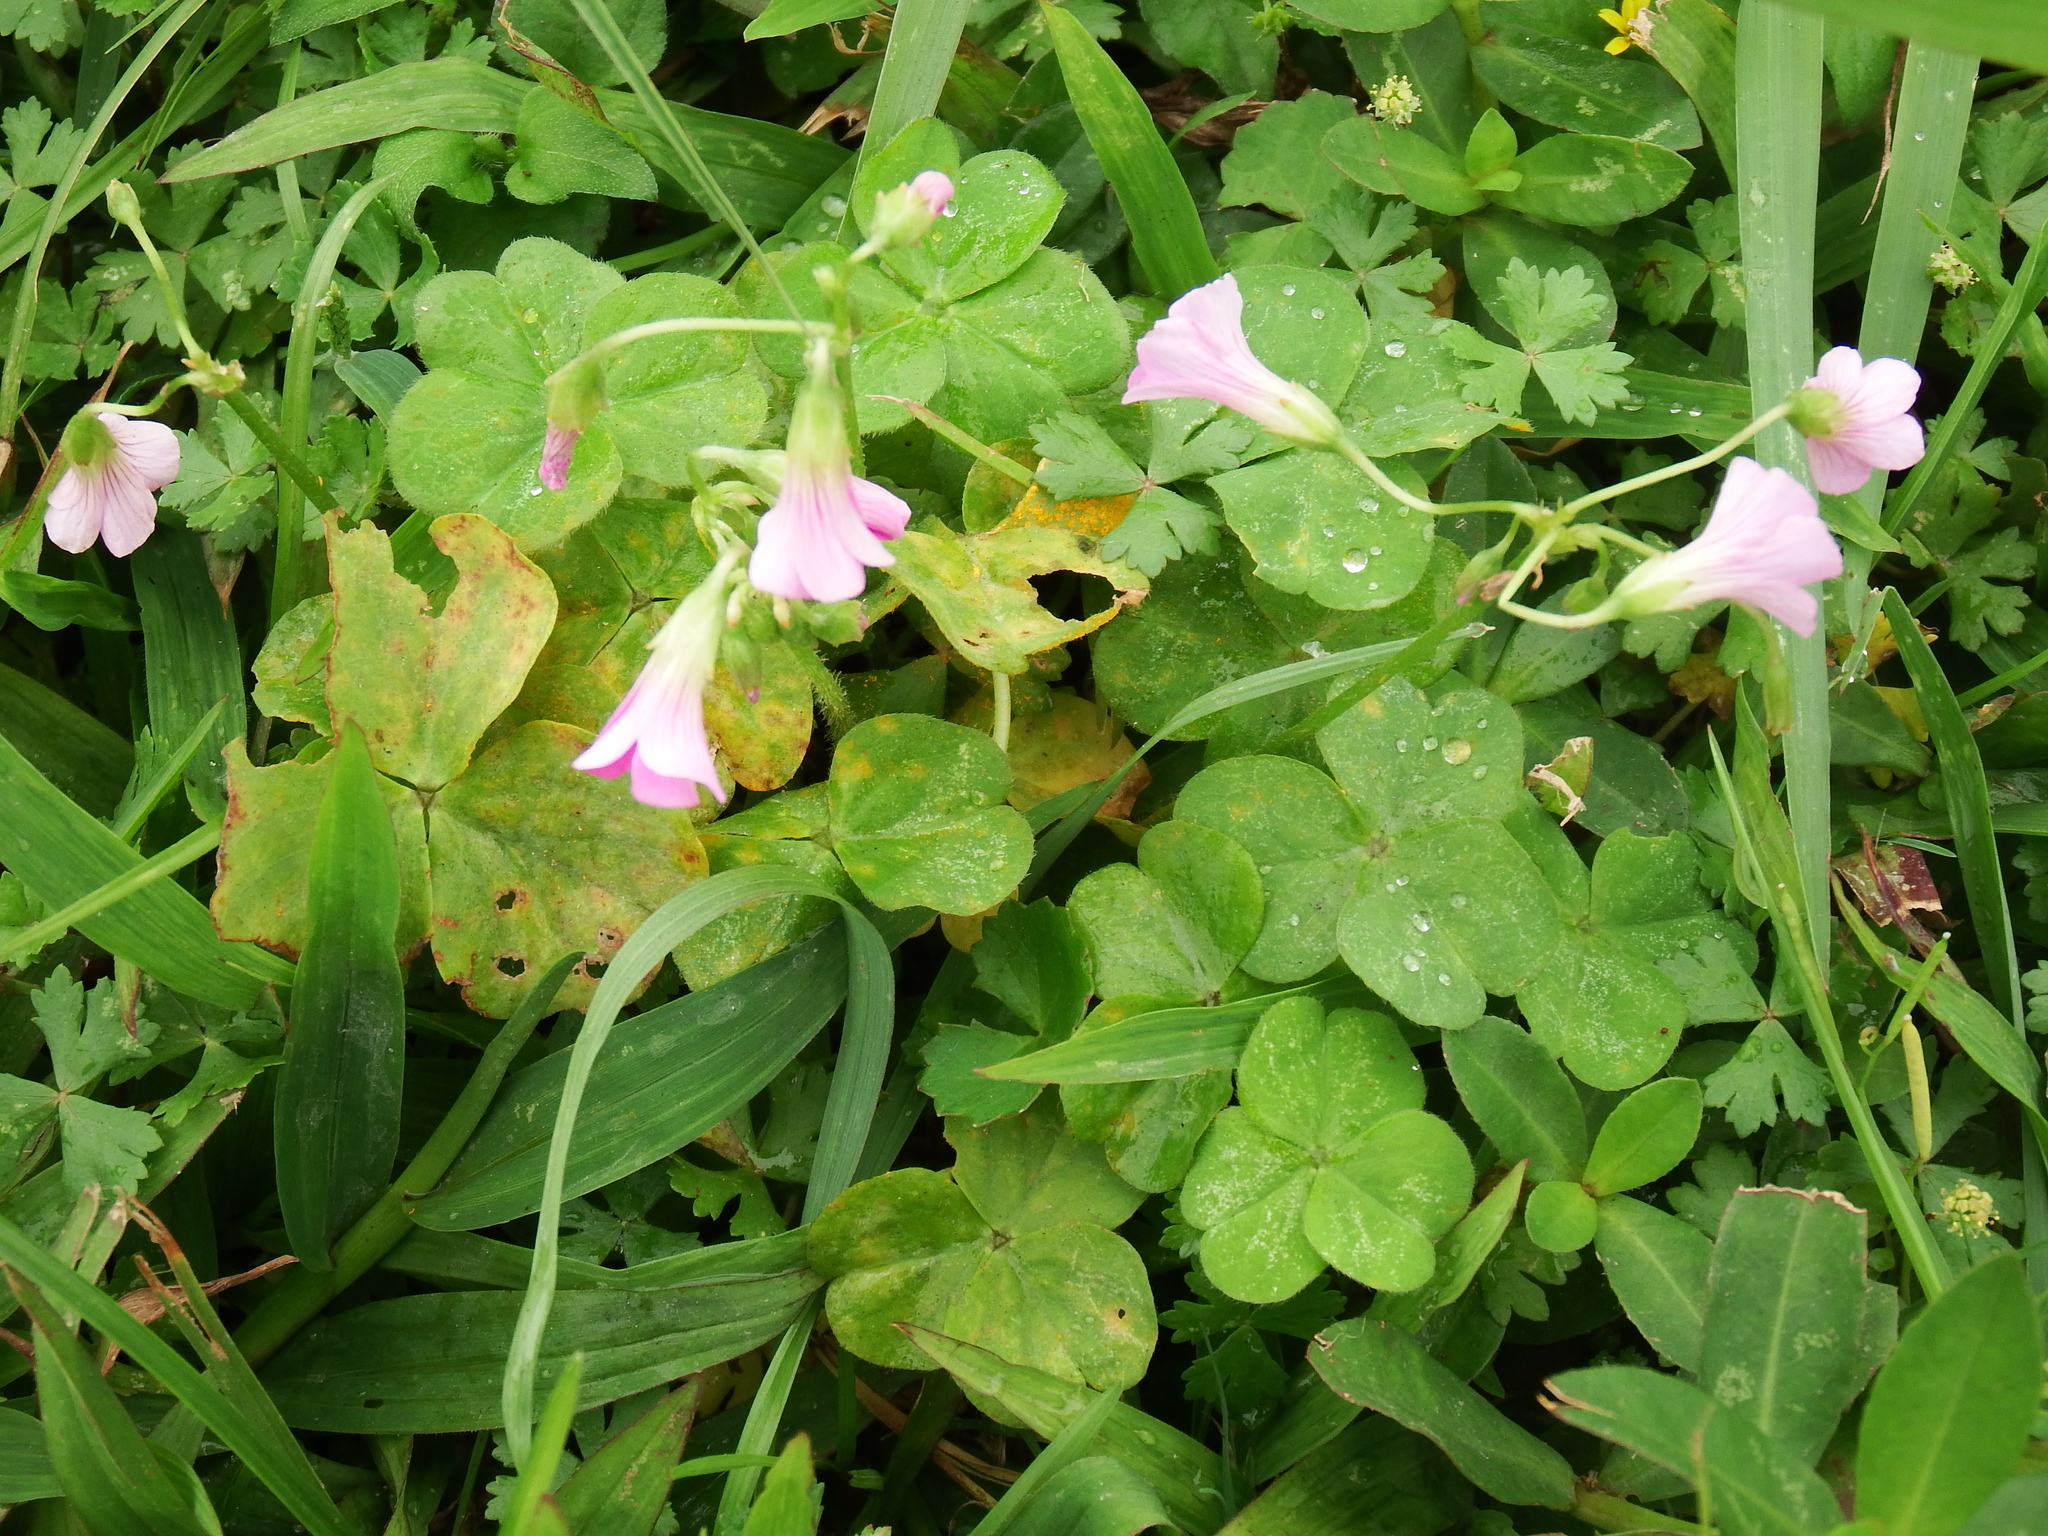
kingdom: Plantae
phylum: Tracheophyta
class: Magnoliopsida
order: Oxalidales
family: Oxalidaceae
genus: Oxalis
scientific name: Oxalis debilis
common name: Large-flowered pink-sorrel
